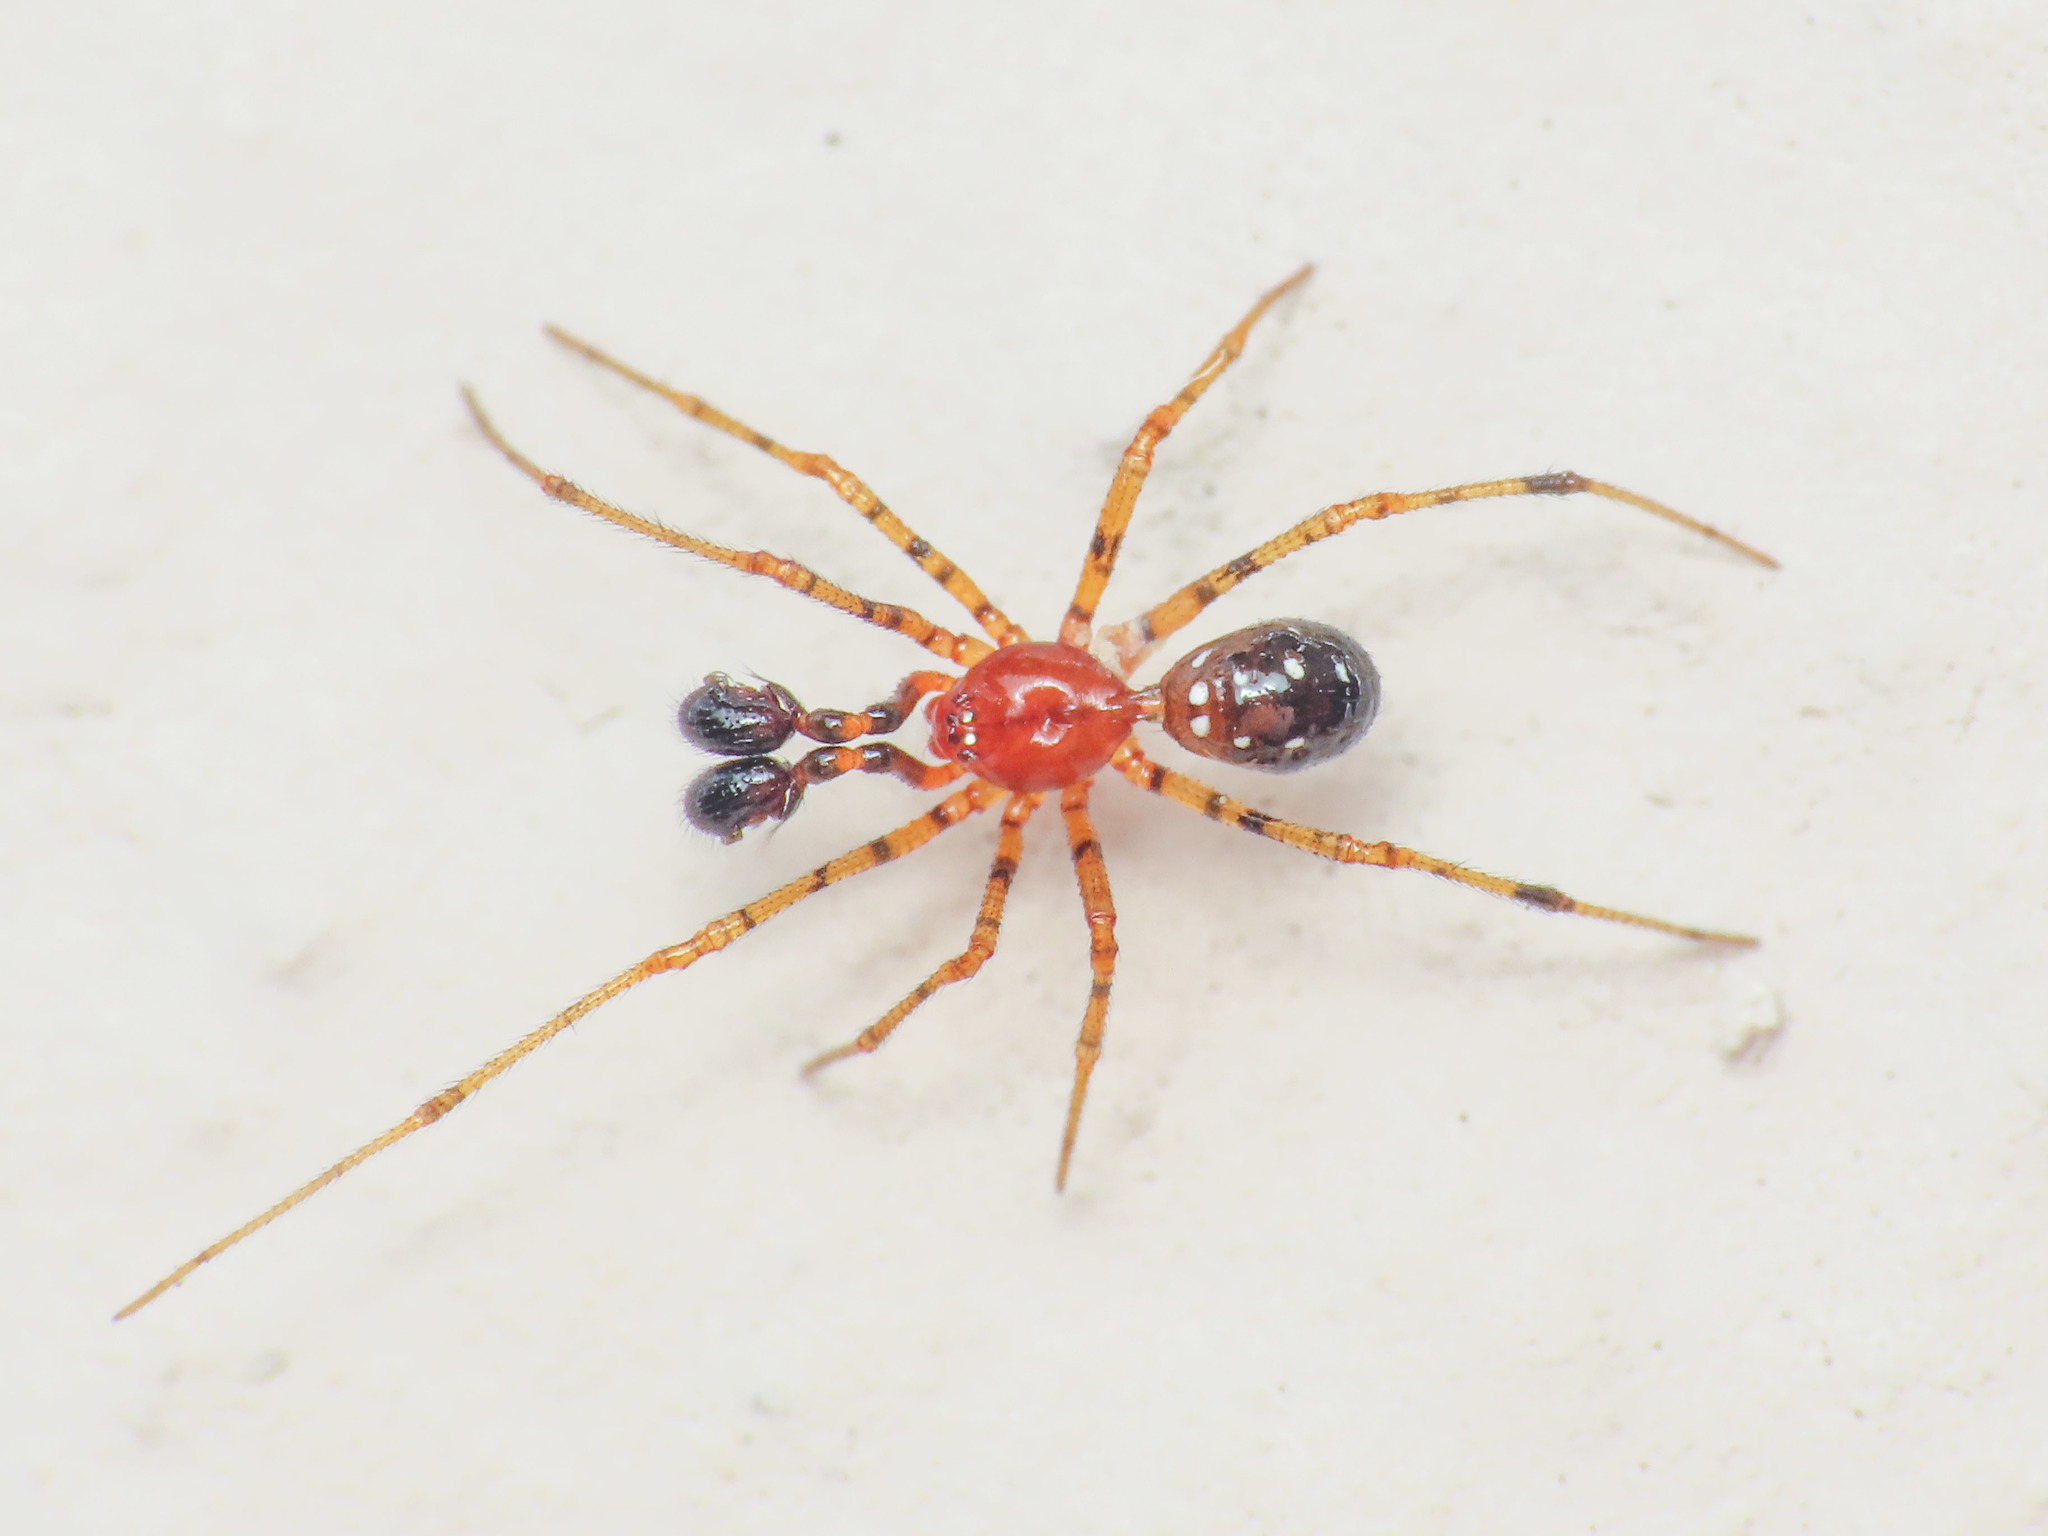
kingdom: Animalia
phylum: Arthropoda
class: Arachnida
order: Araneae
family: Theridiidae
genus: Neottiura
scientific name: Neottiura herbigrada
